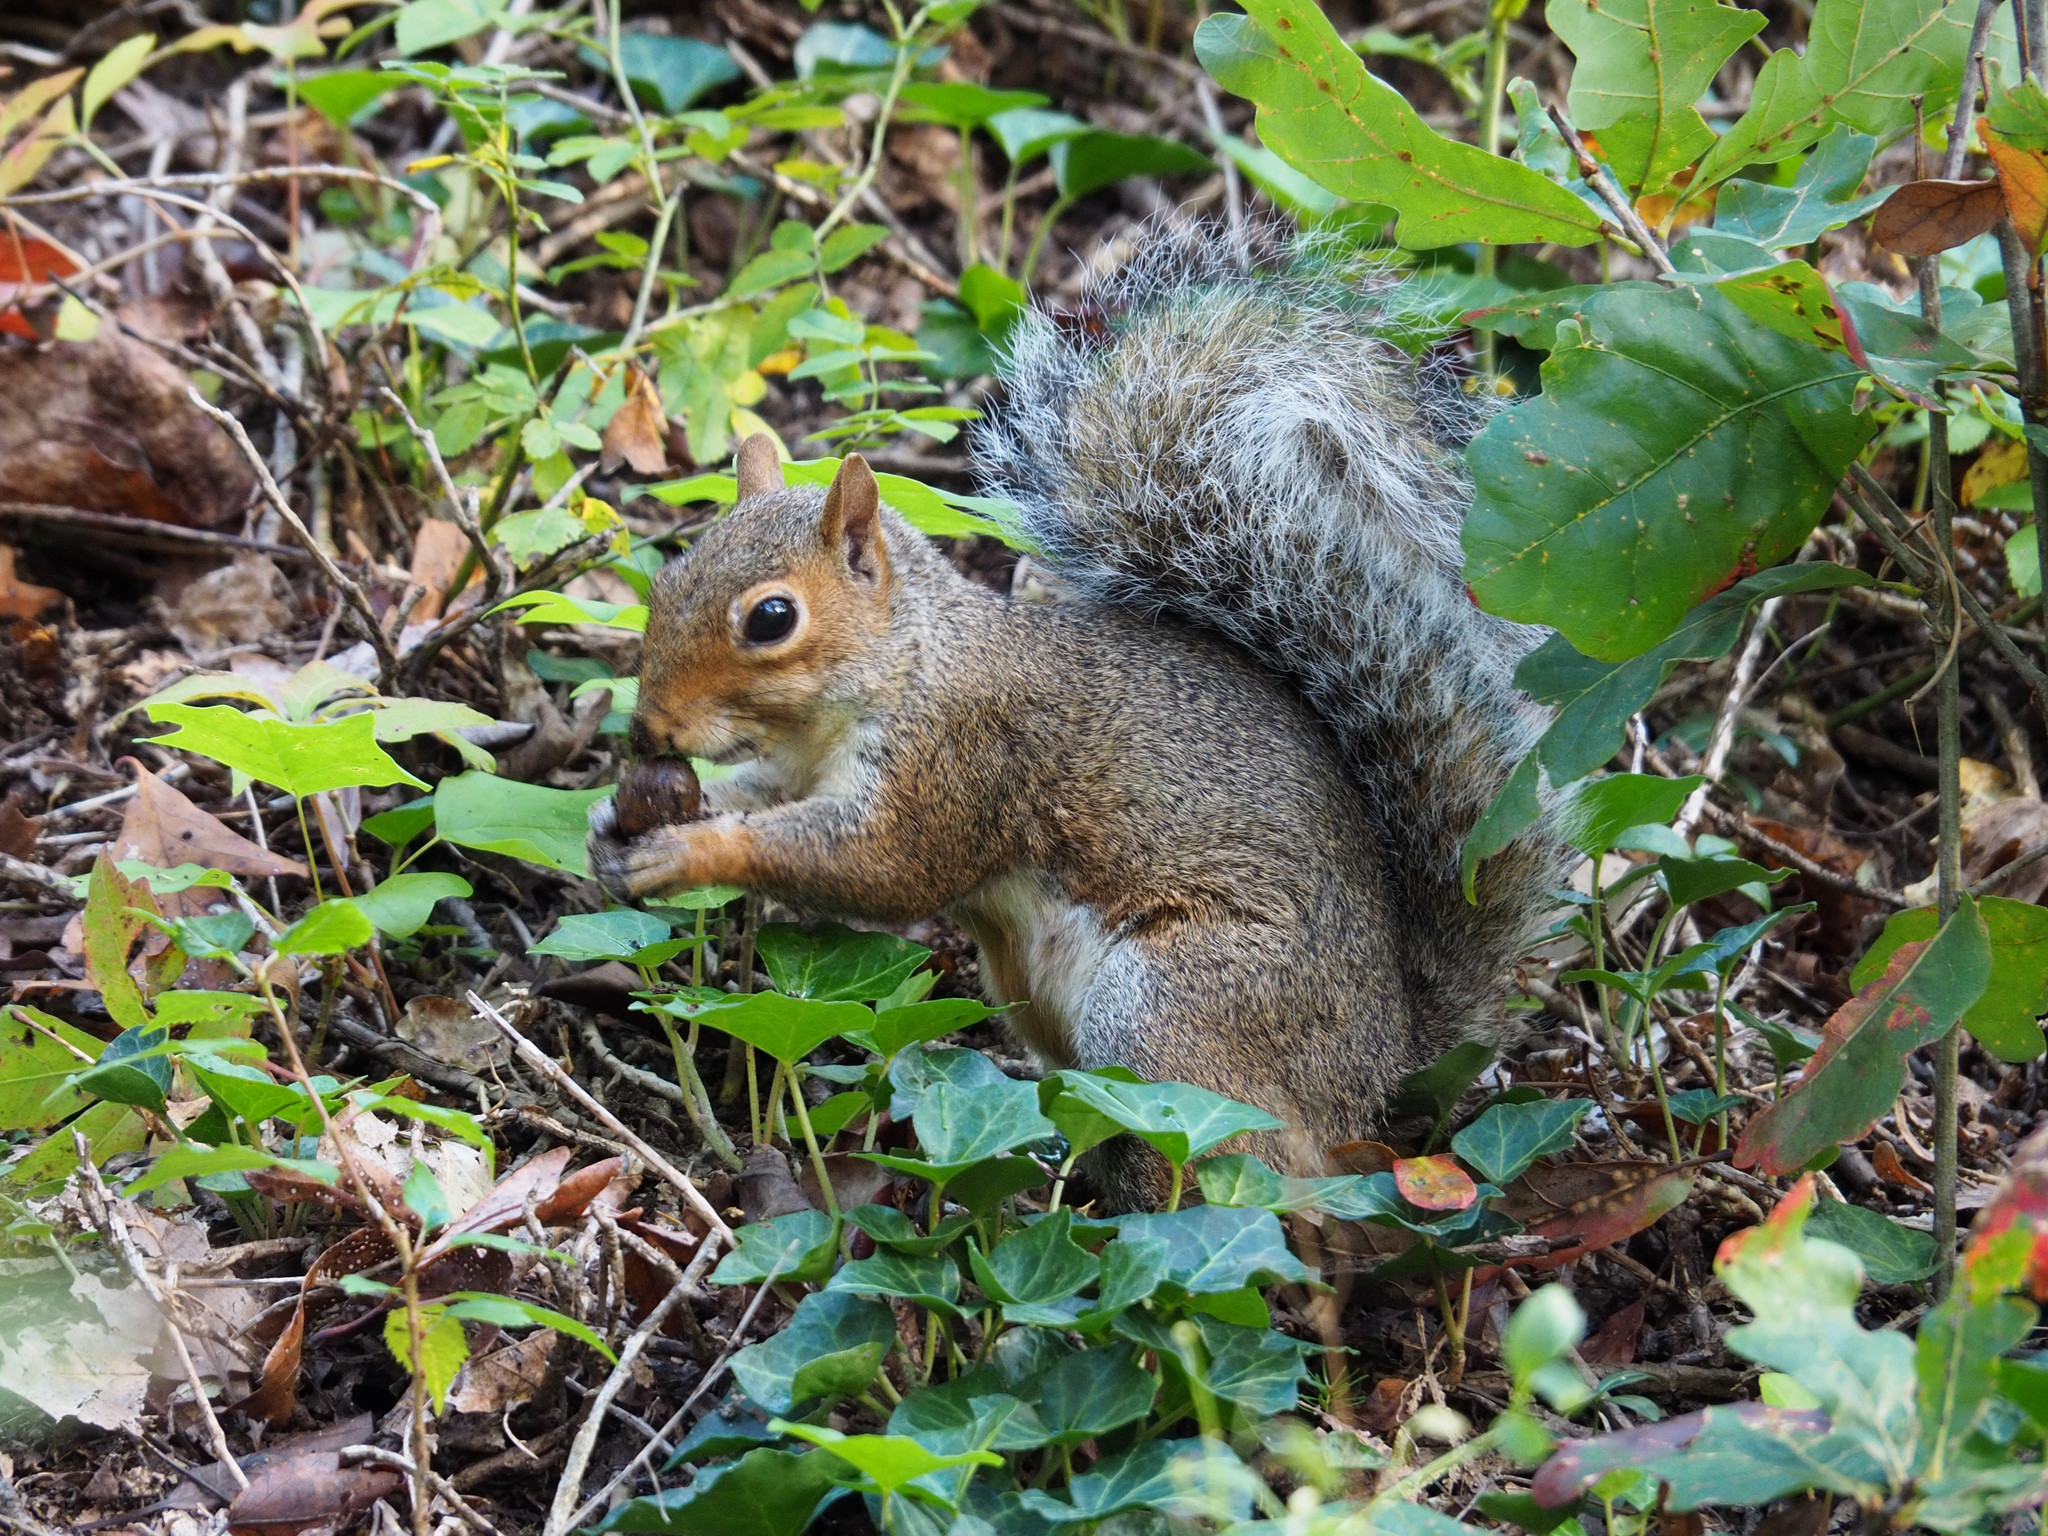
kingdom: Animalia
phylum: Chordata
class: Mammalia
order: Rodentia
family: Sciuridae
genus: Sciurus
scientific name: Sciurus carolinensis
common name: Eastern gray squirrel
